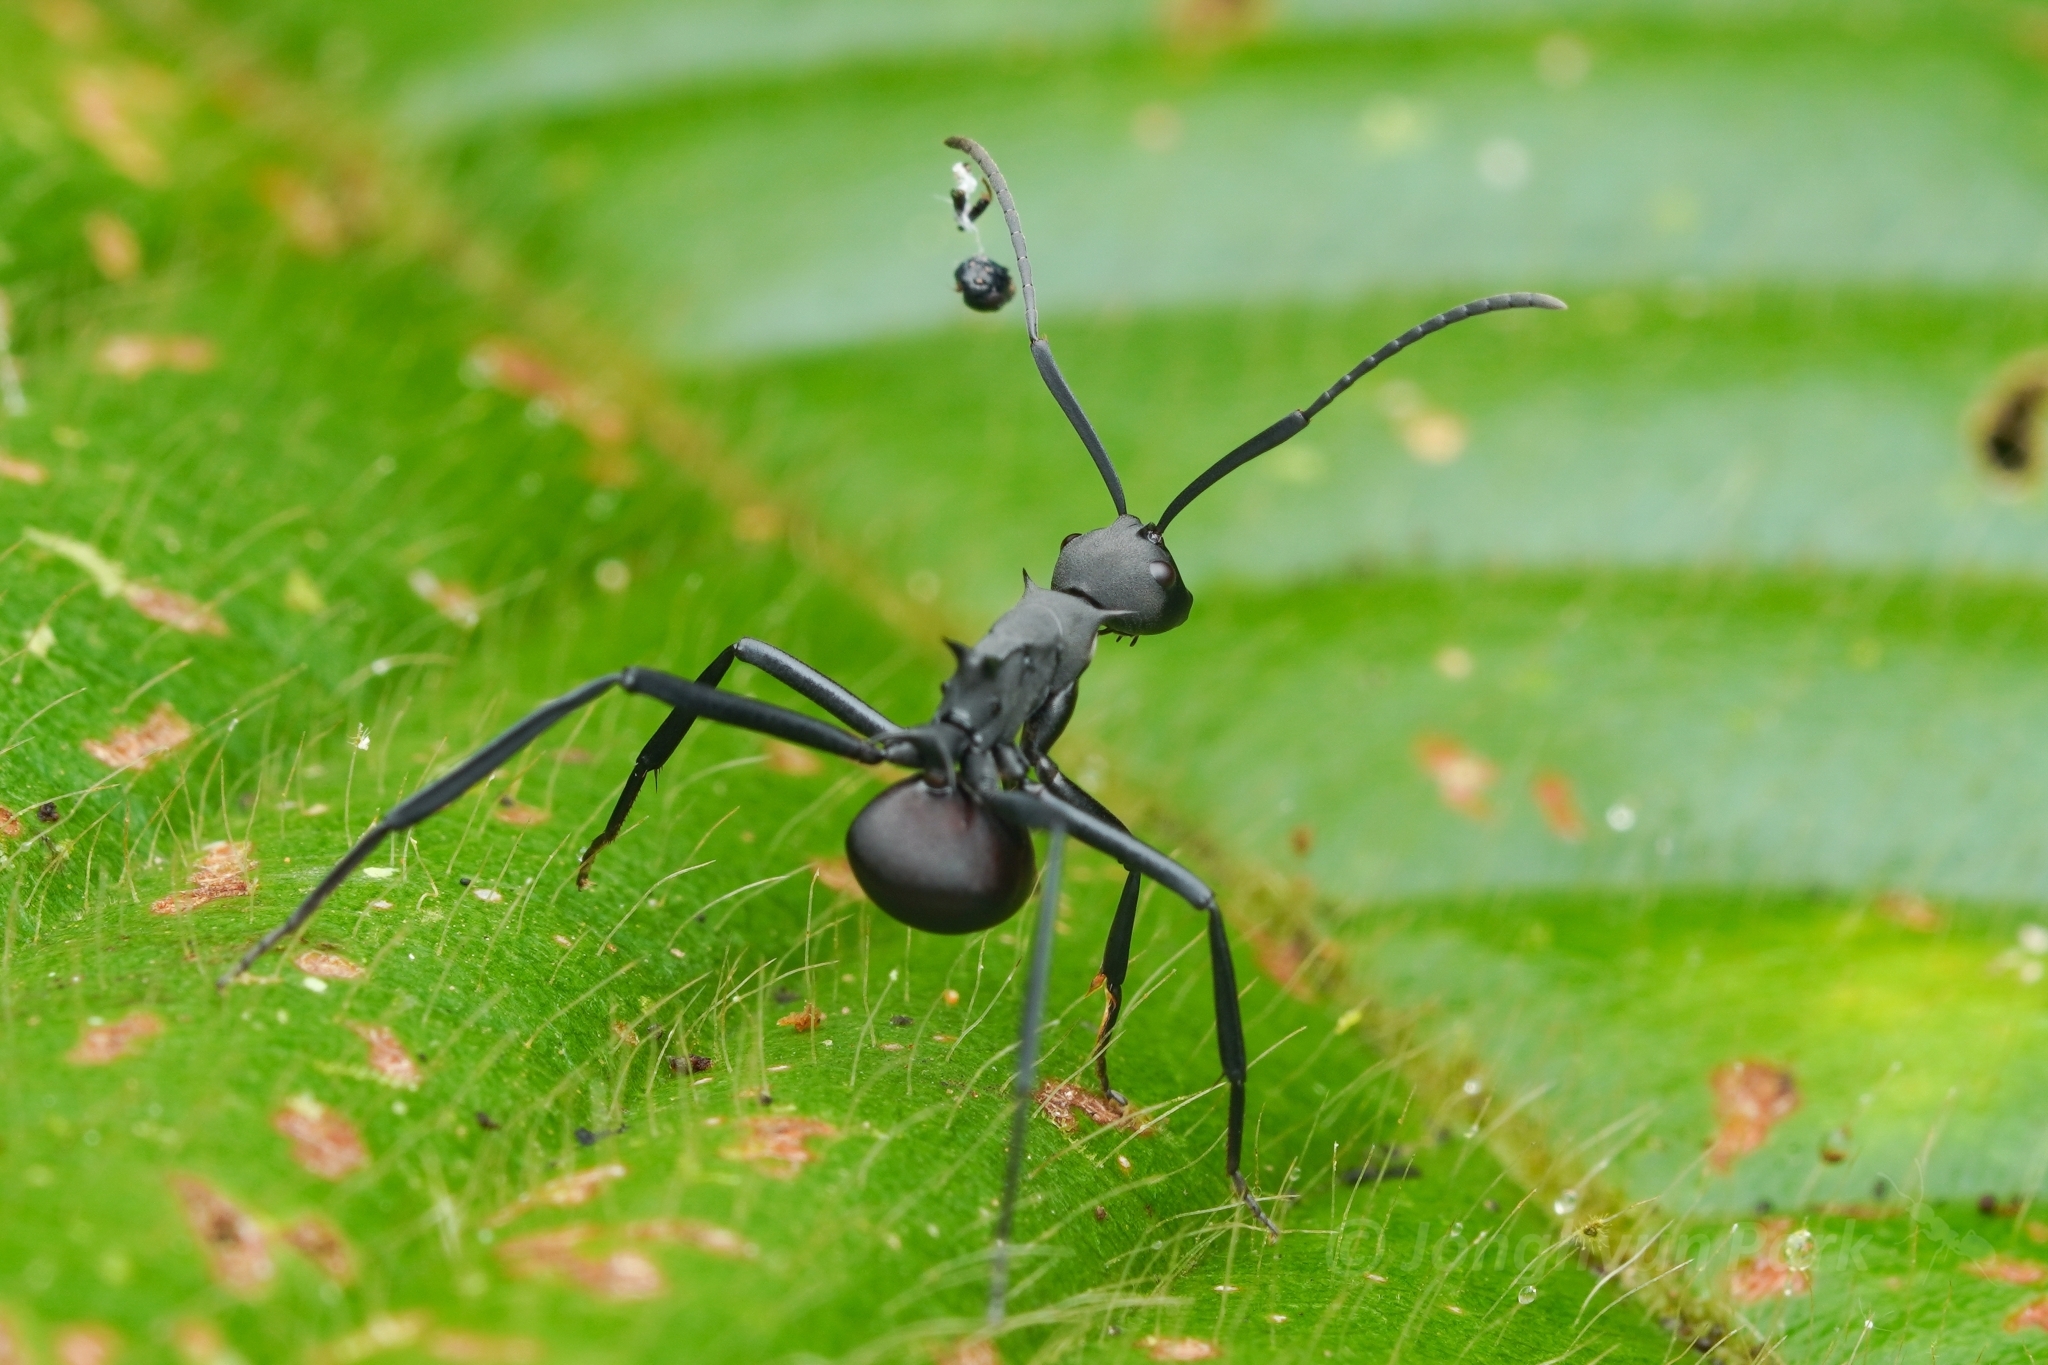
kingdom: Animalia
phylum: Arthropoda
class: Insecta
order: Hymenoptera
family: Formicidae
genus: Polyrhachis
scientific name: Polyrhachis abdominalis
